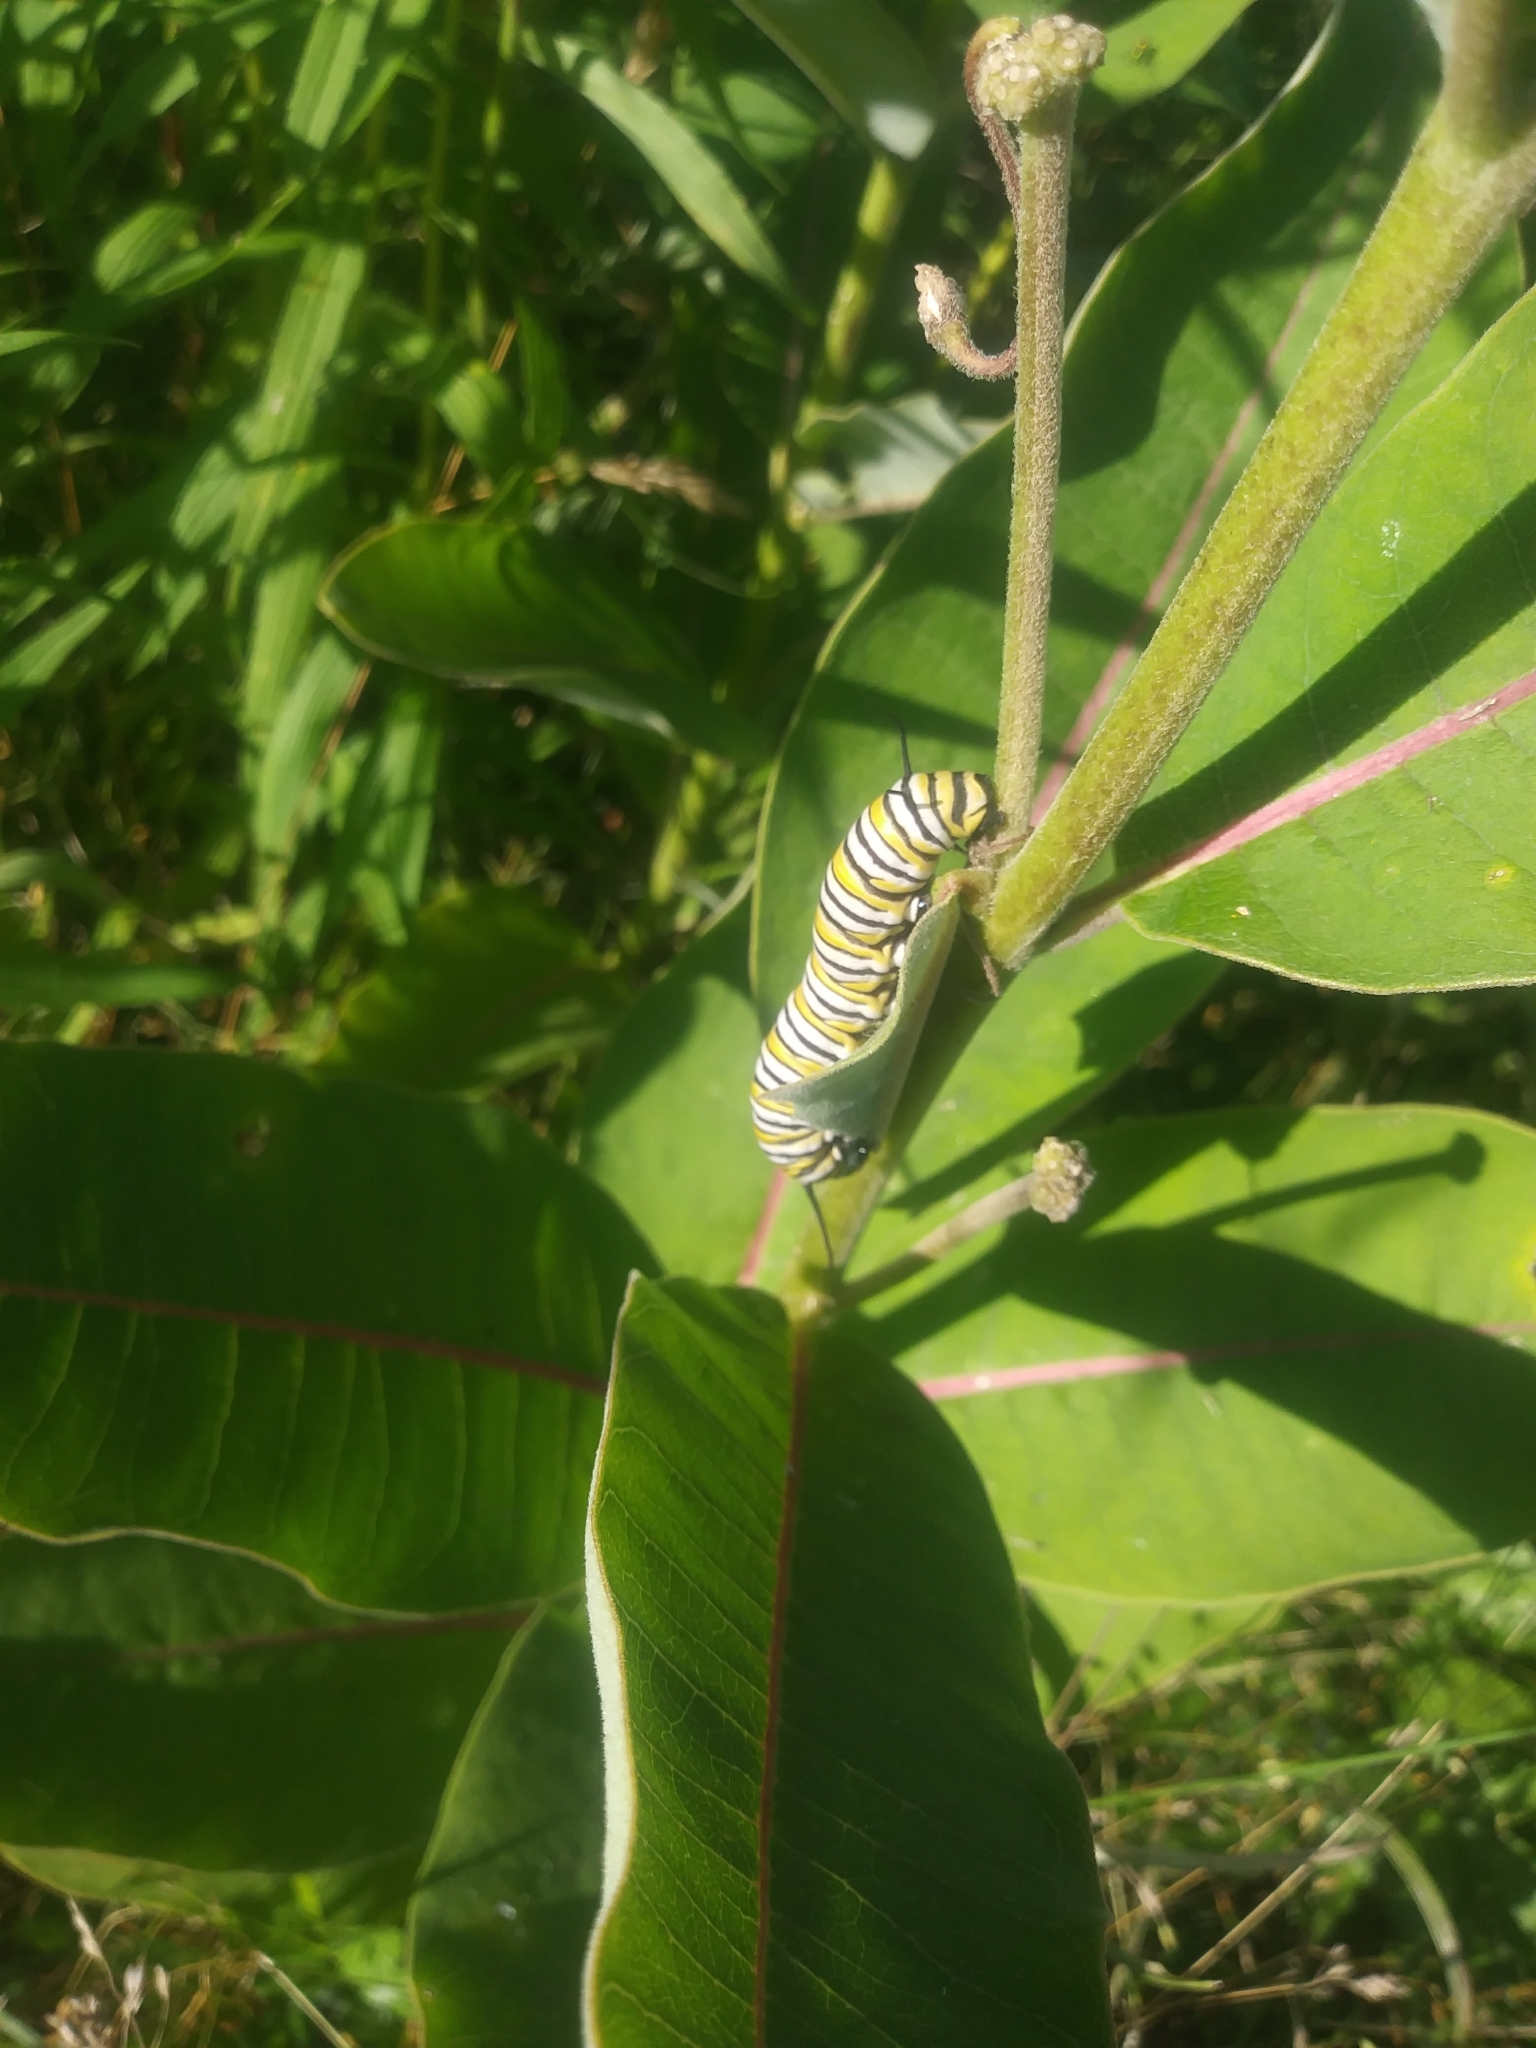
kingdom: Animalia
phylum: Arthropoda
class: Insecta
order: Lepidoptera
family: Nymphalidae
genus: Danaus
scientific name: Danaus plexippus
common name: Monarch
